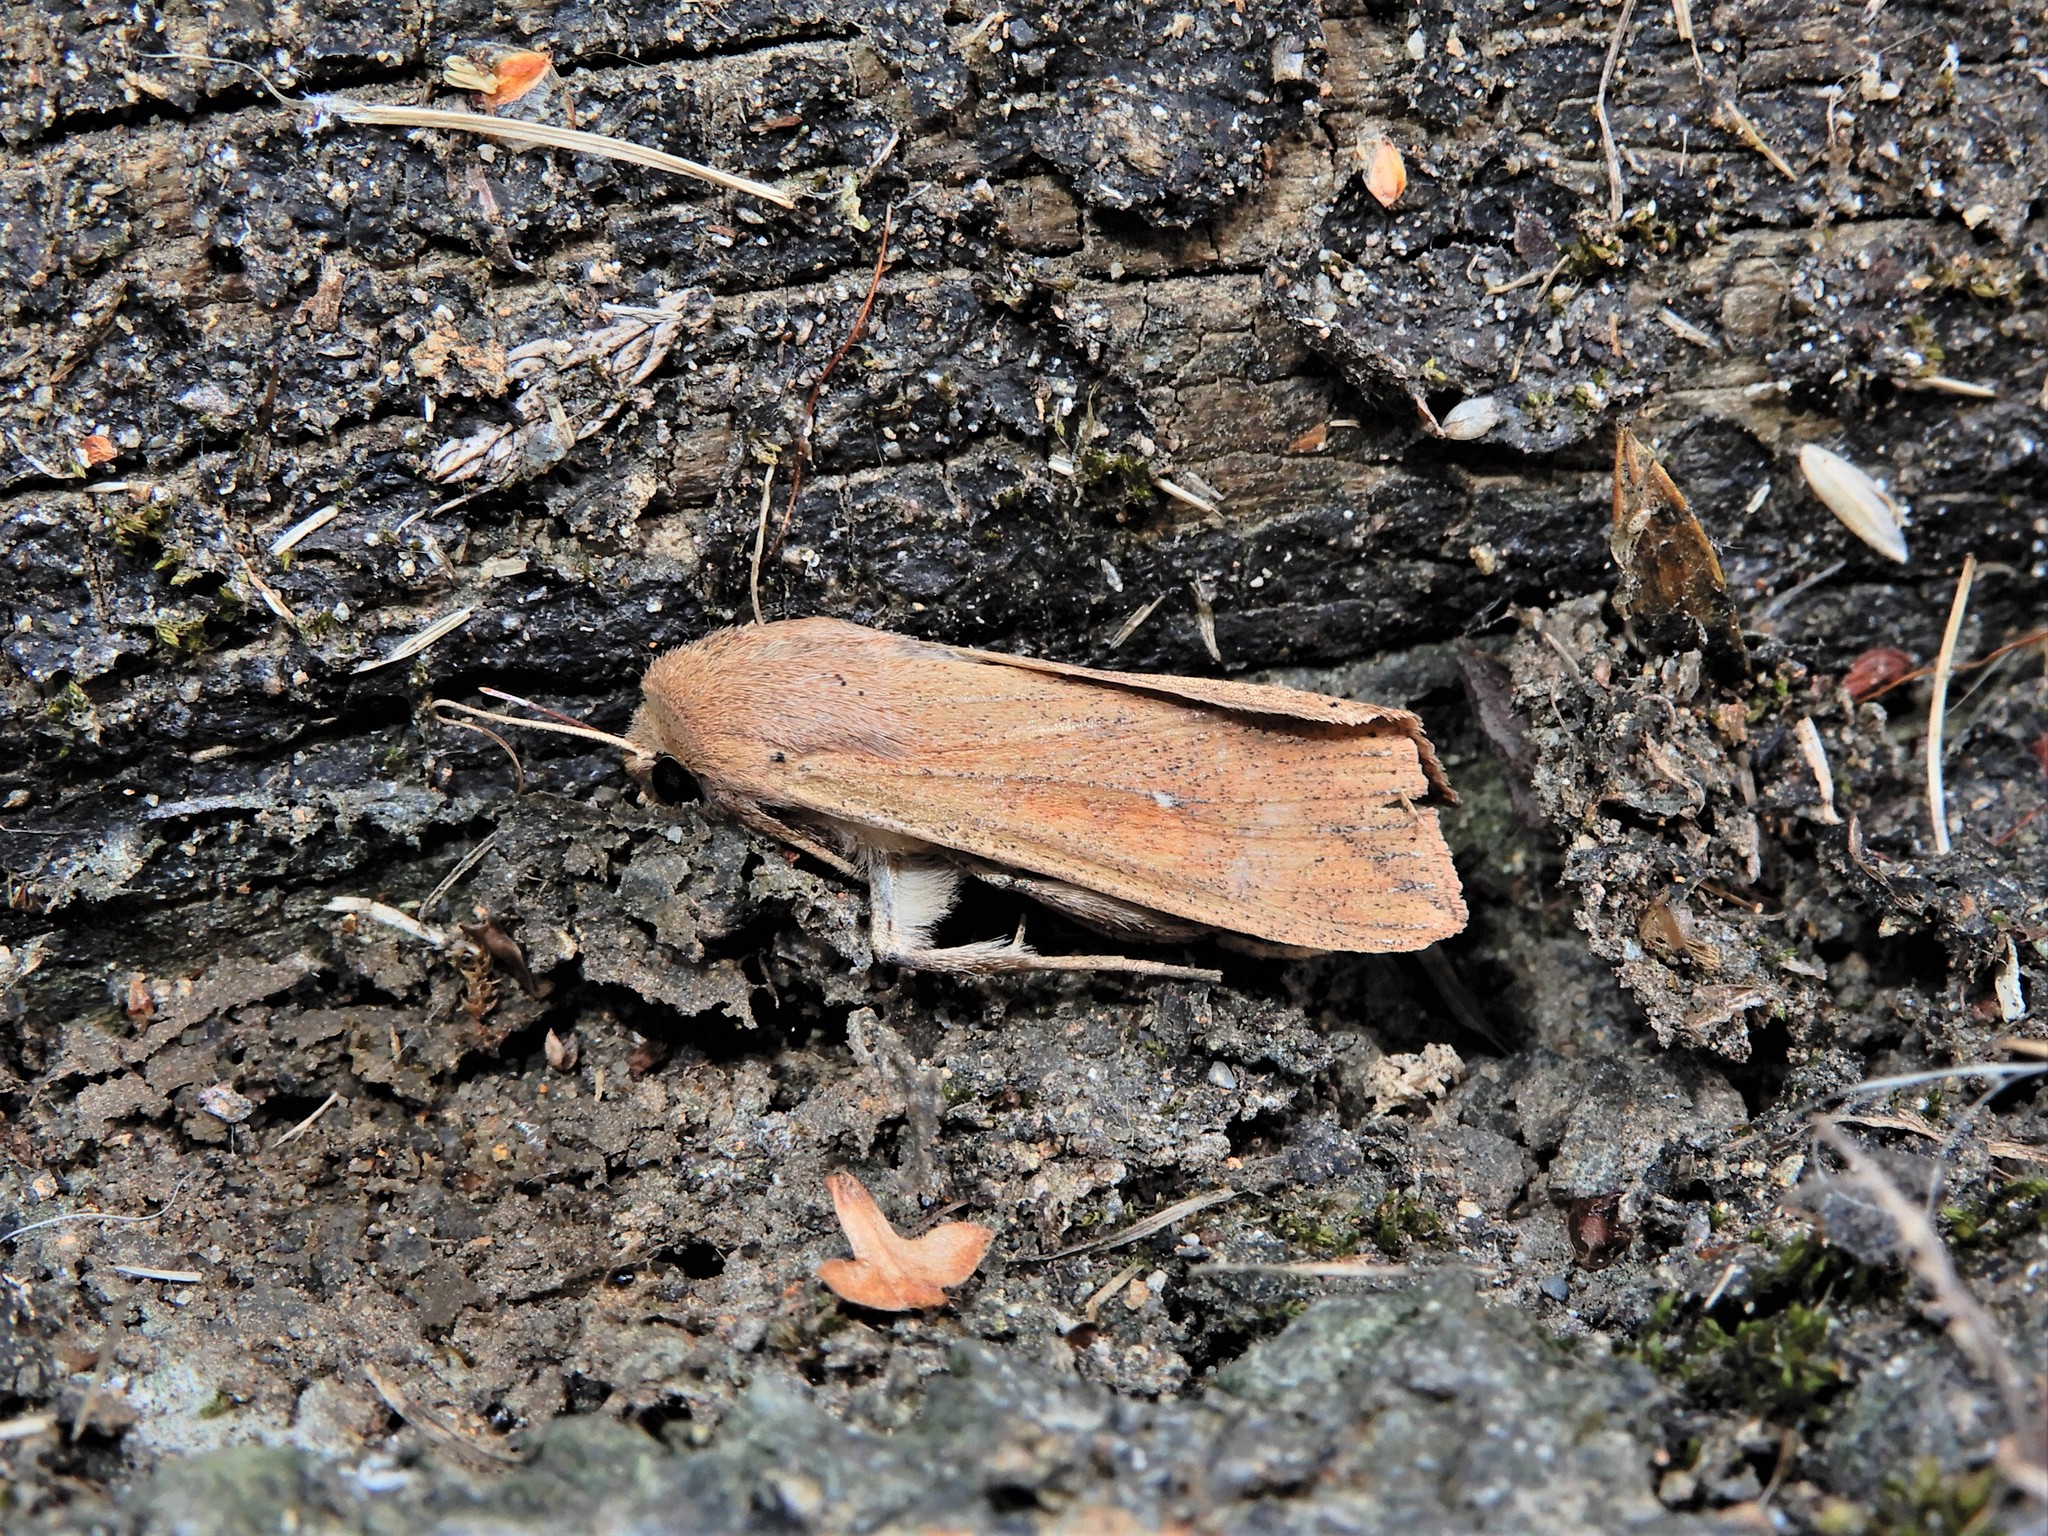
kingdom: Animalia
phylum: Arthropoda
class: Insecta
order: Lepidoptera
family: Noctuidae
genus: Mythimna
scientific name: Mythimna separata
